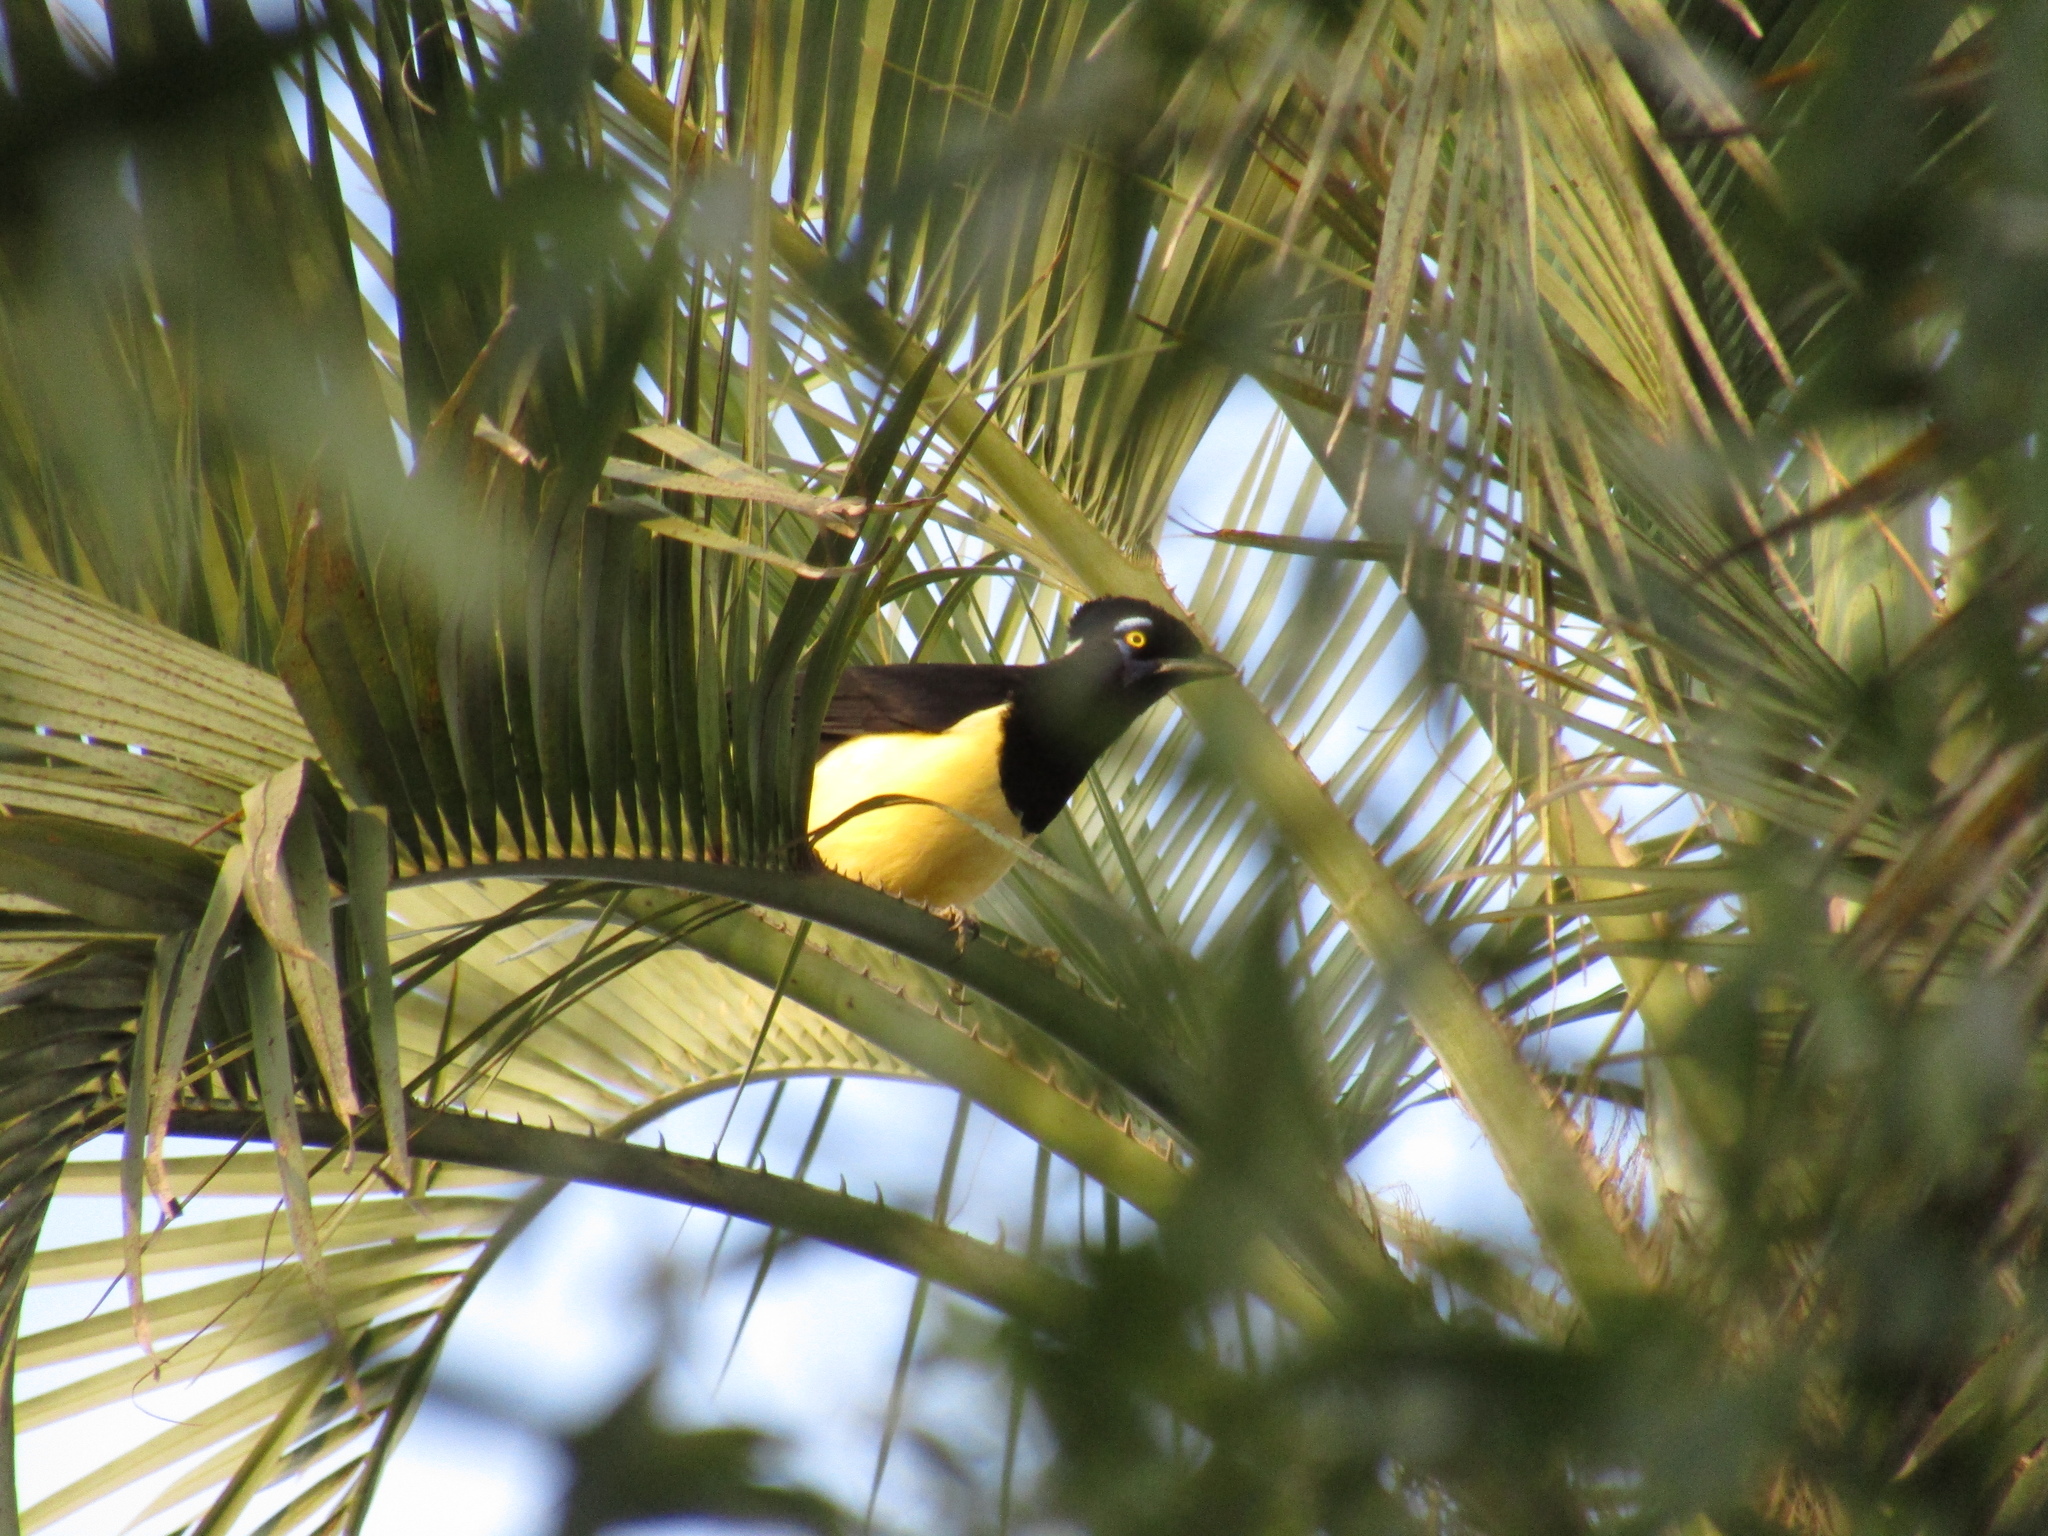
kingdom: Animalia
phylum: Chordata
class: Aves
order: Passeriformes
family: Corvidae
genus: Cyanocorax
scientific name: Cyanocorax chrysops
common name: Plush-crested jay
